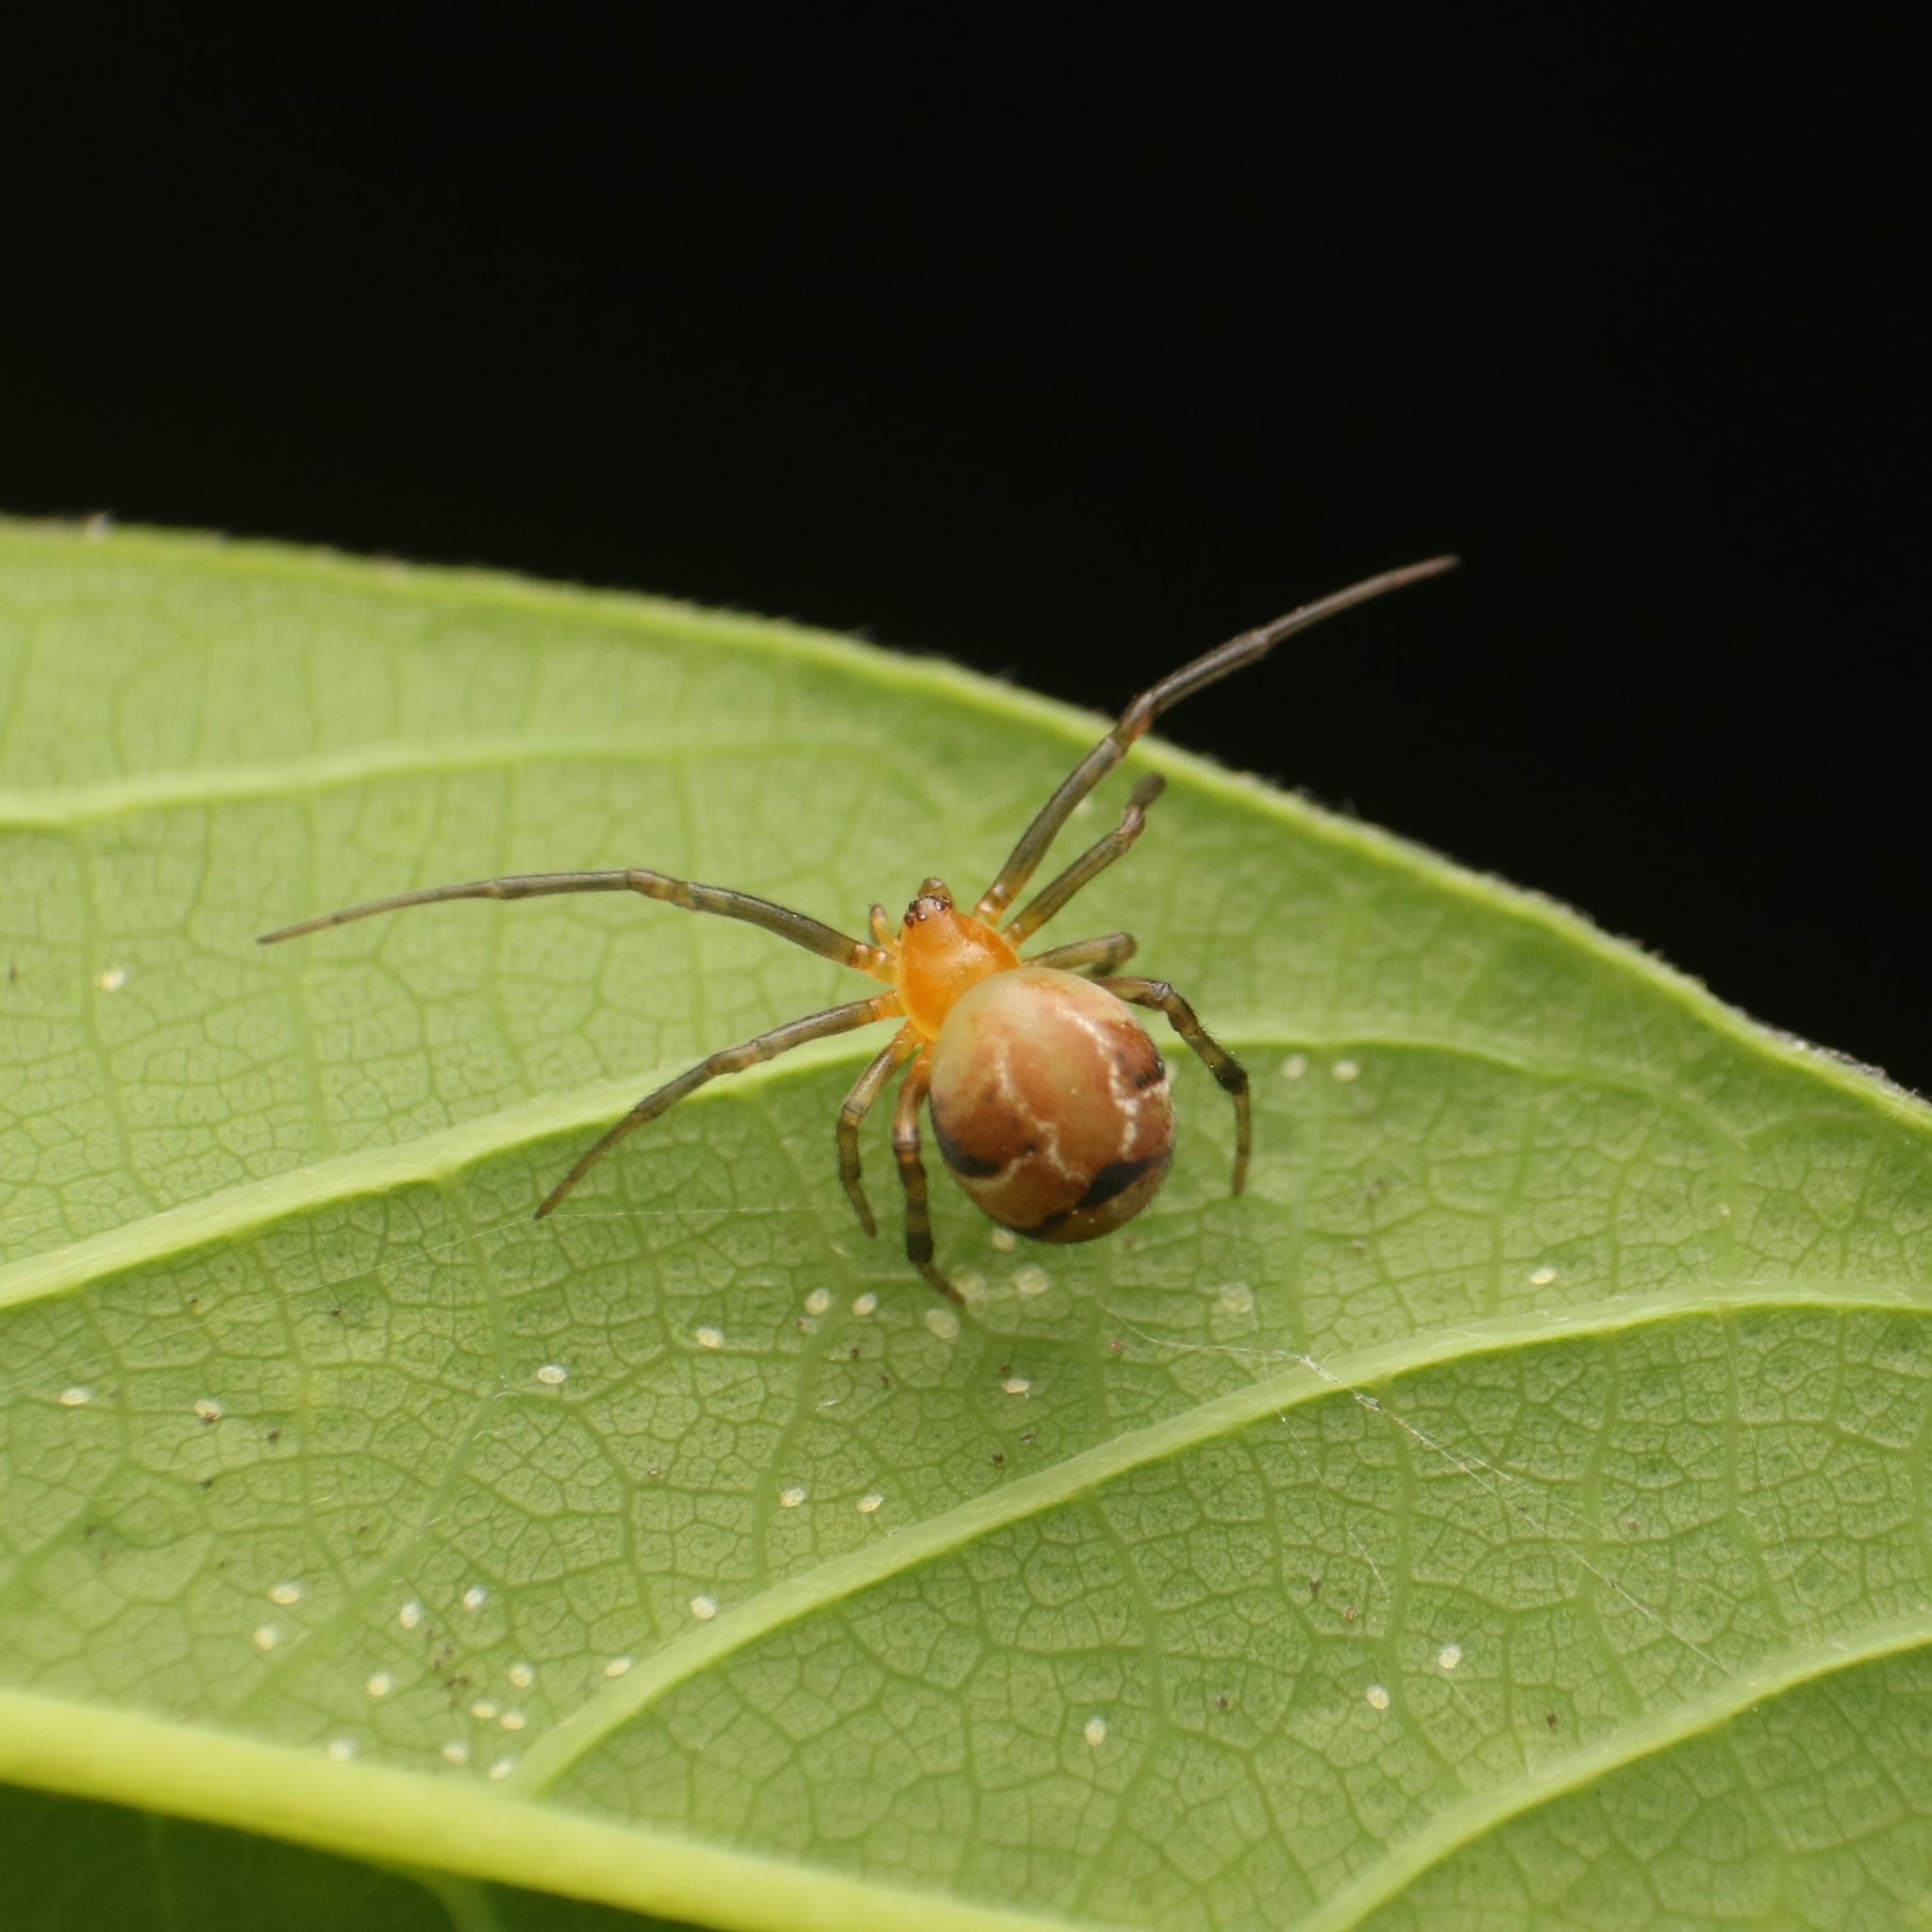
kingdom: Animalia
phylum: Arthropoda
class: Arachnida
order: Araneae
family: Theridiidae
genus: Nihonhimea
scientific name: Nihonhimea mundula
